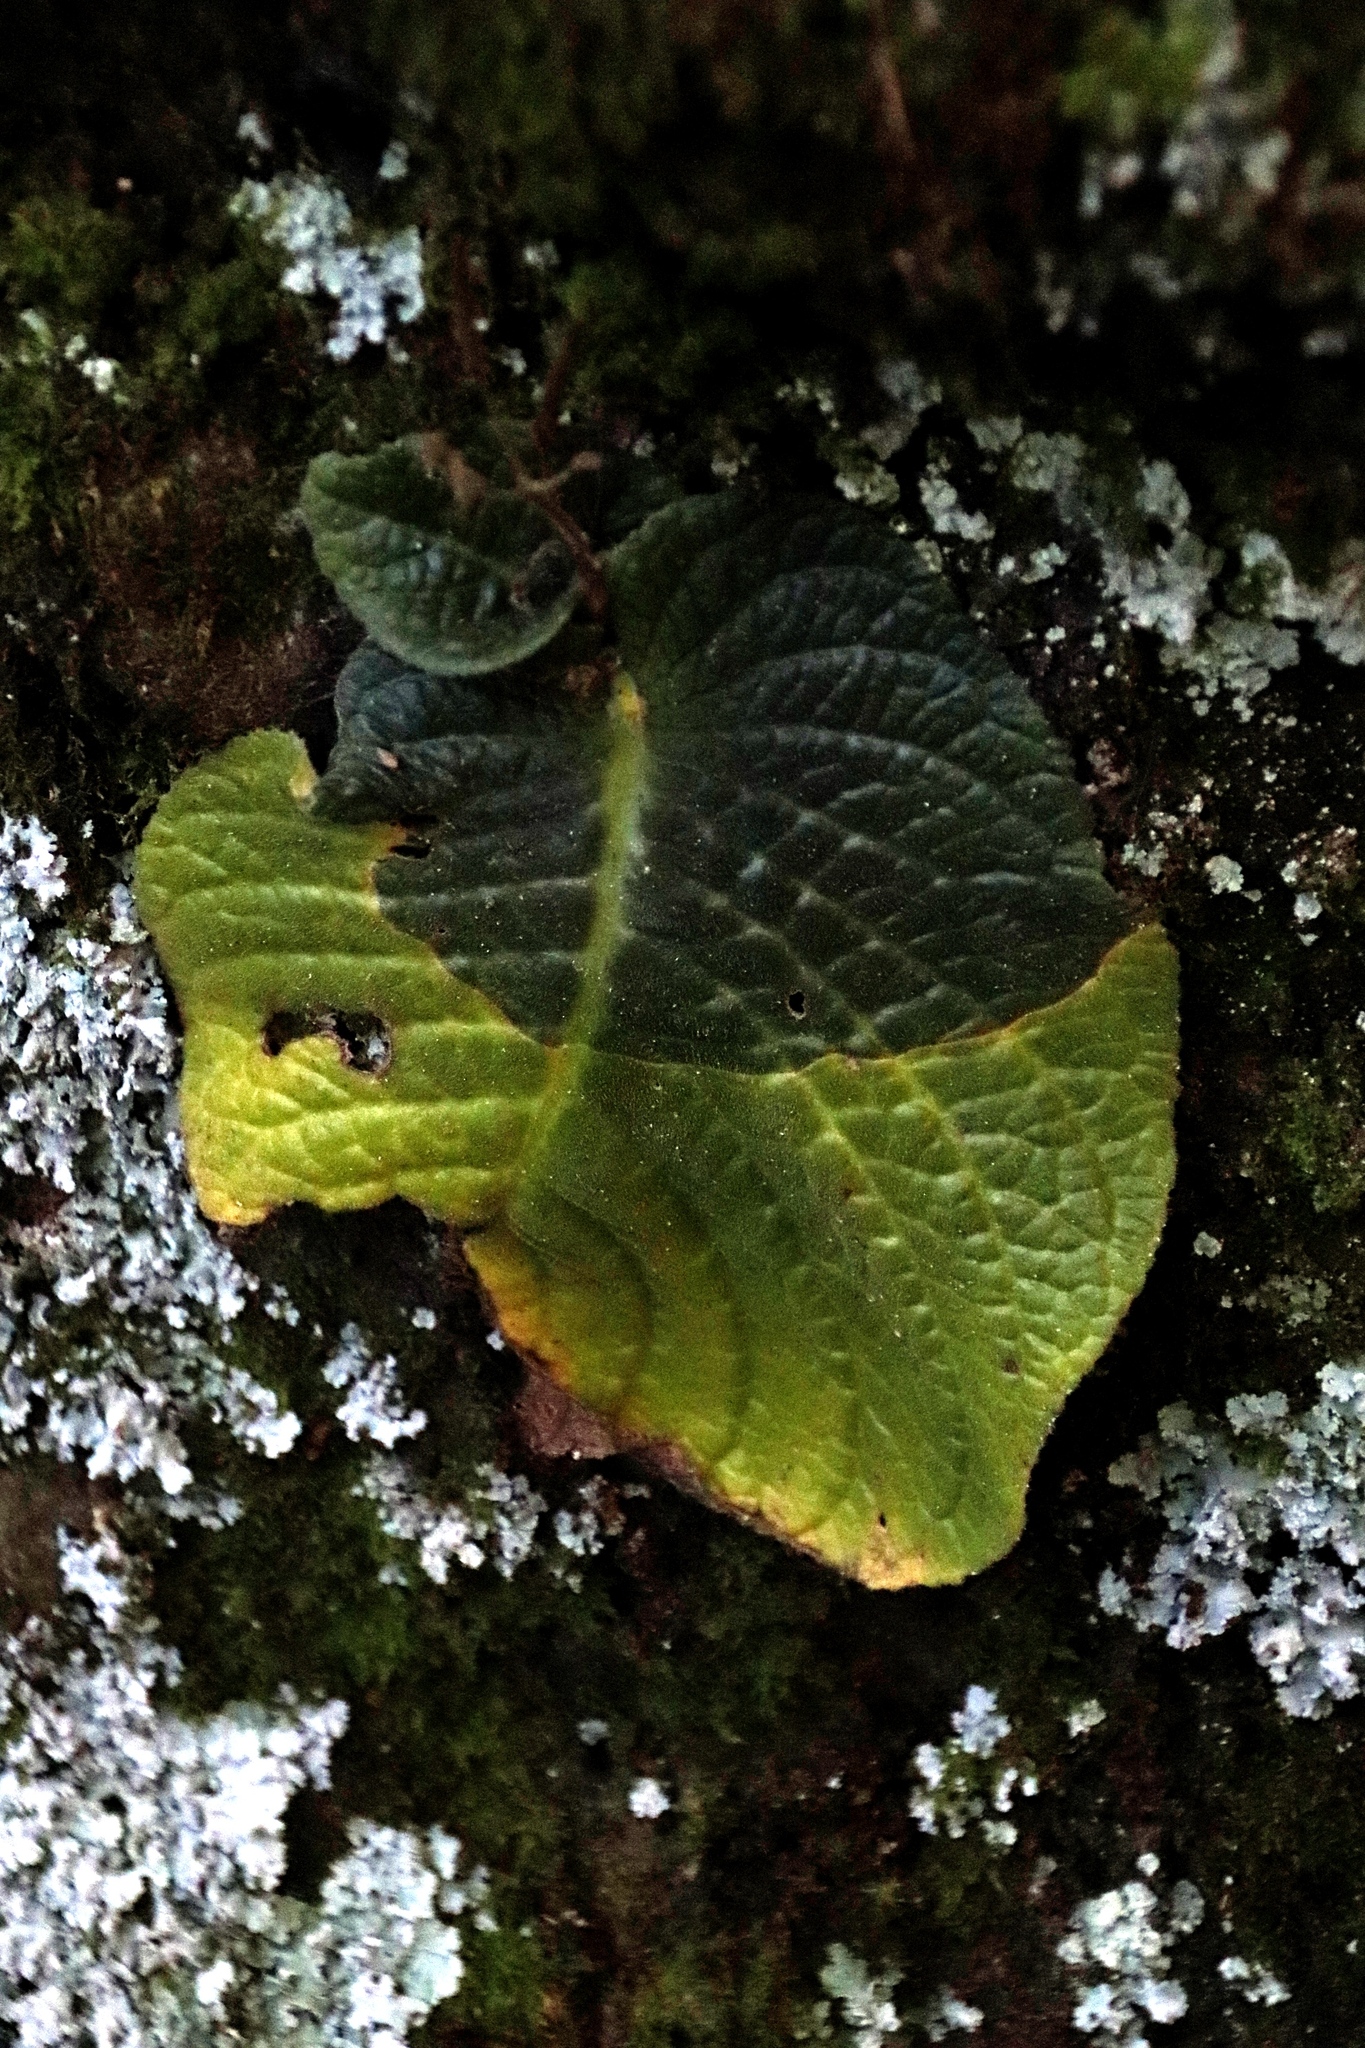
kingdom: Plantae
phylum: Tracheophyta
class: Magnoliopsida
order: Lamiales
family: Gesneriaceae
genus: Streptocarpus
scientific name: Streptocarpus polyanthus
